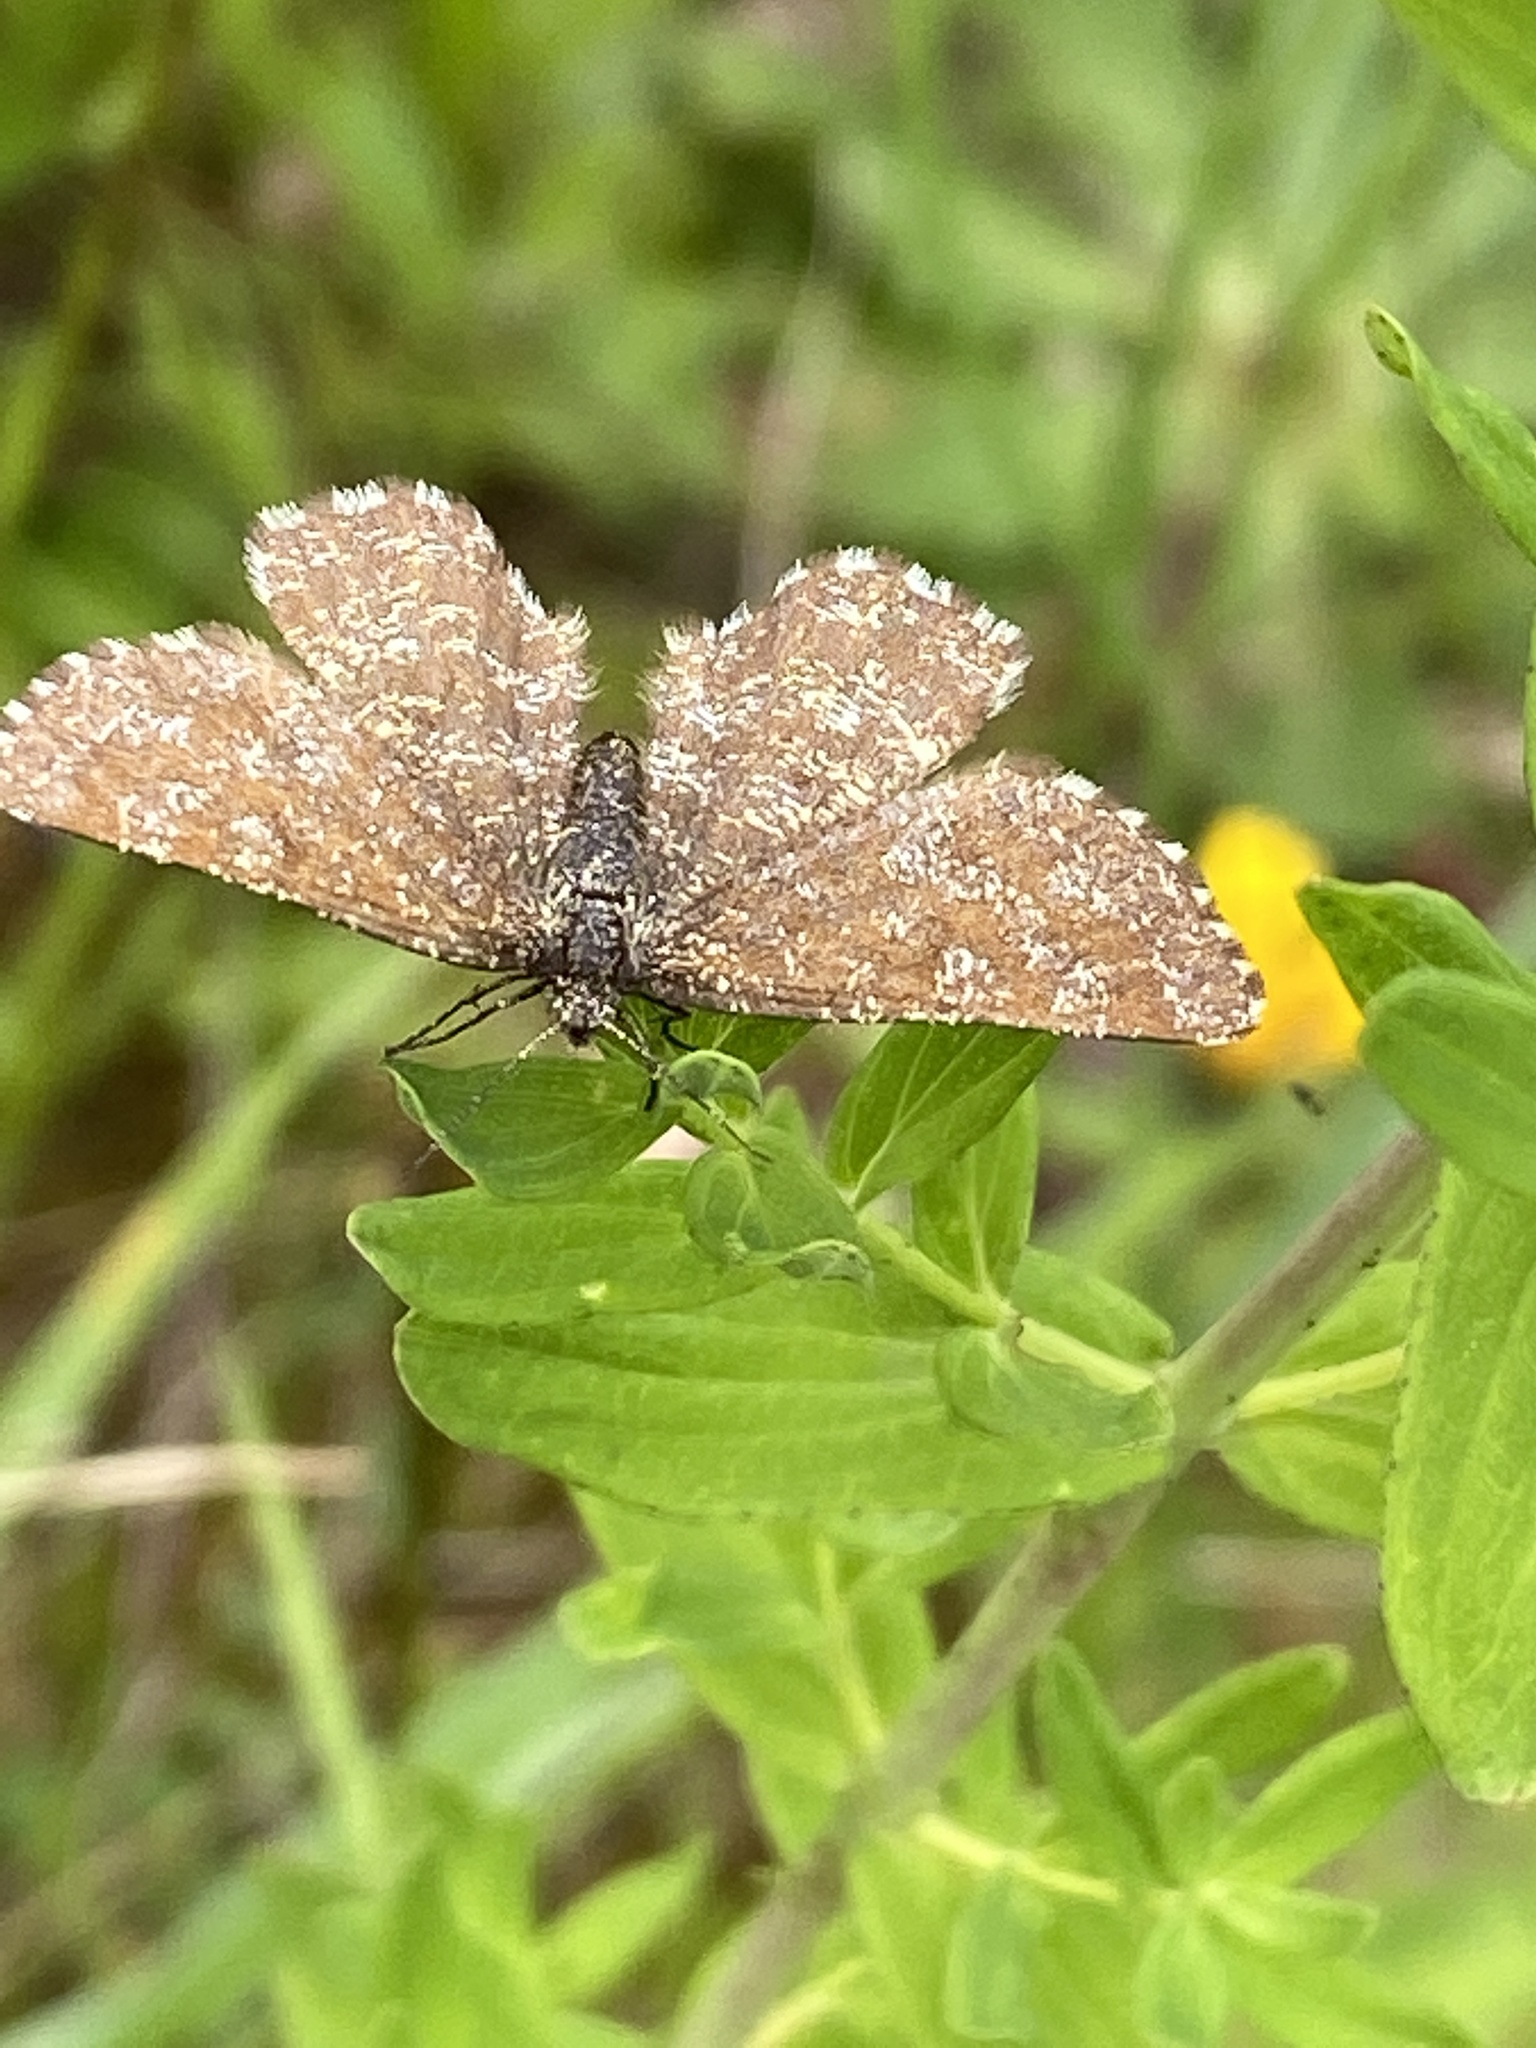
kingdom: Animalia
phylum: Arthropoda
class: Insecta
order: Lepidoptera
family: Geometridae
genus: Ematurga
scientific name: Ematurga atomaria
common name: Common heath
